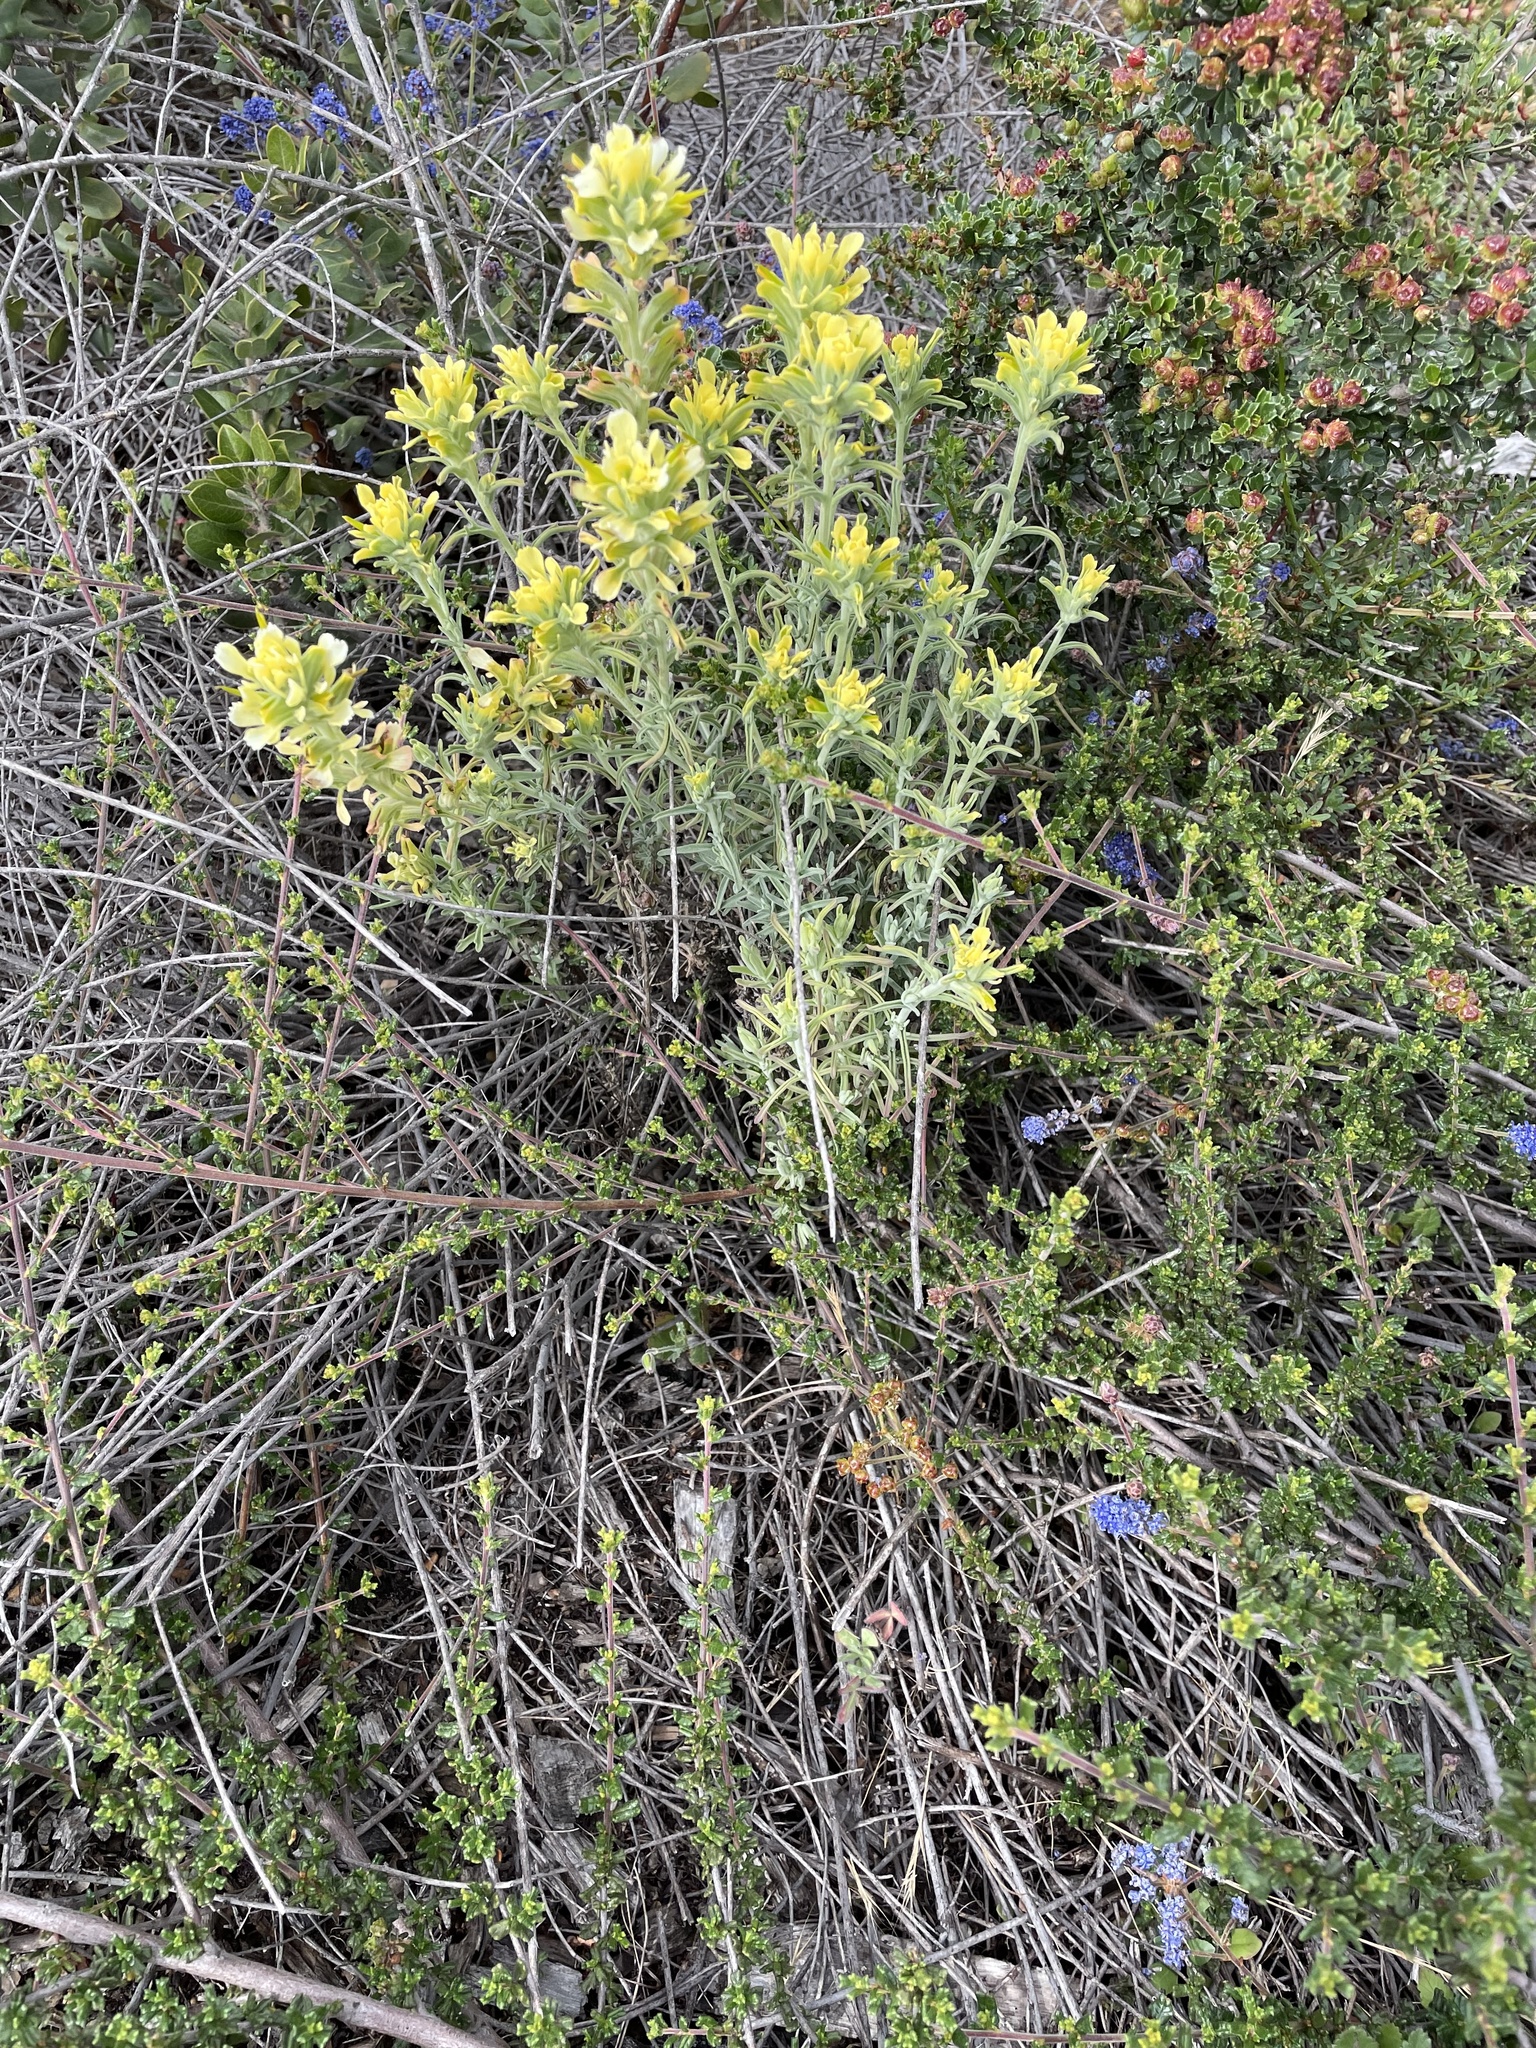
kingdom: Plantae
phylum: Tracheophyta
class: Magnoliopsida
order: Lamiales
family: Orobanchaceae
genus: Castilleja
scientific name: Castilleja foliolosa
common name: Woolly indian paintbrush
